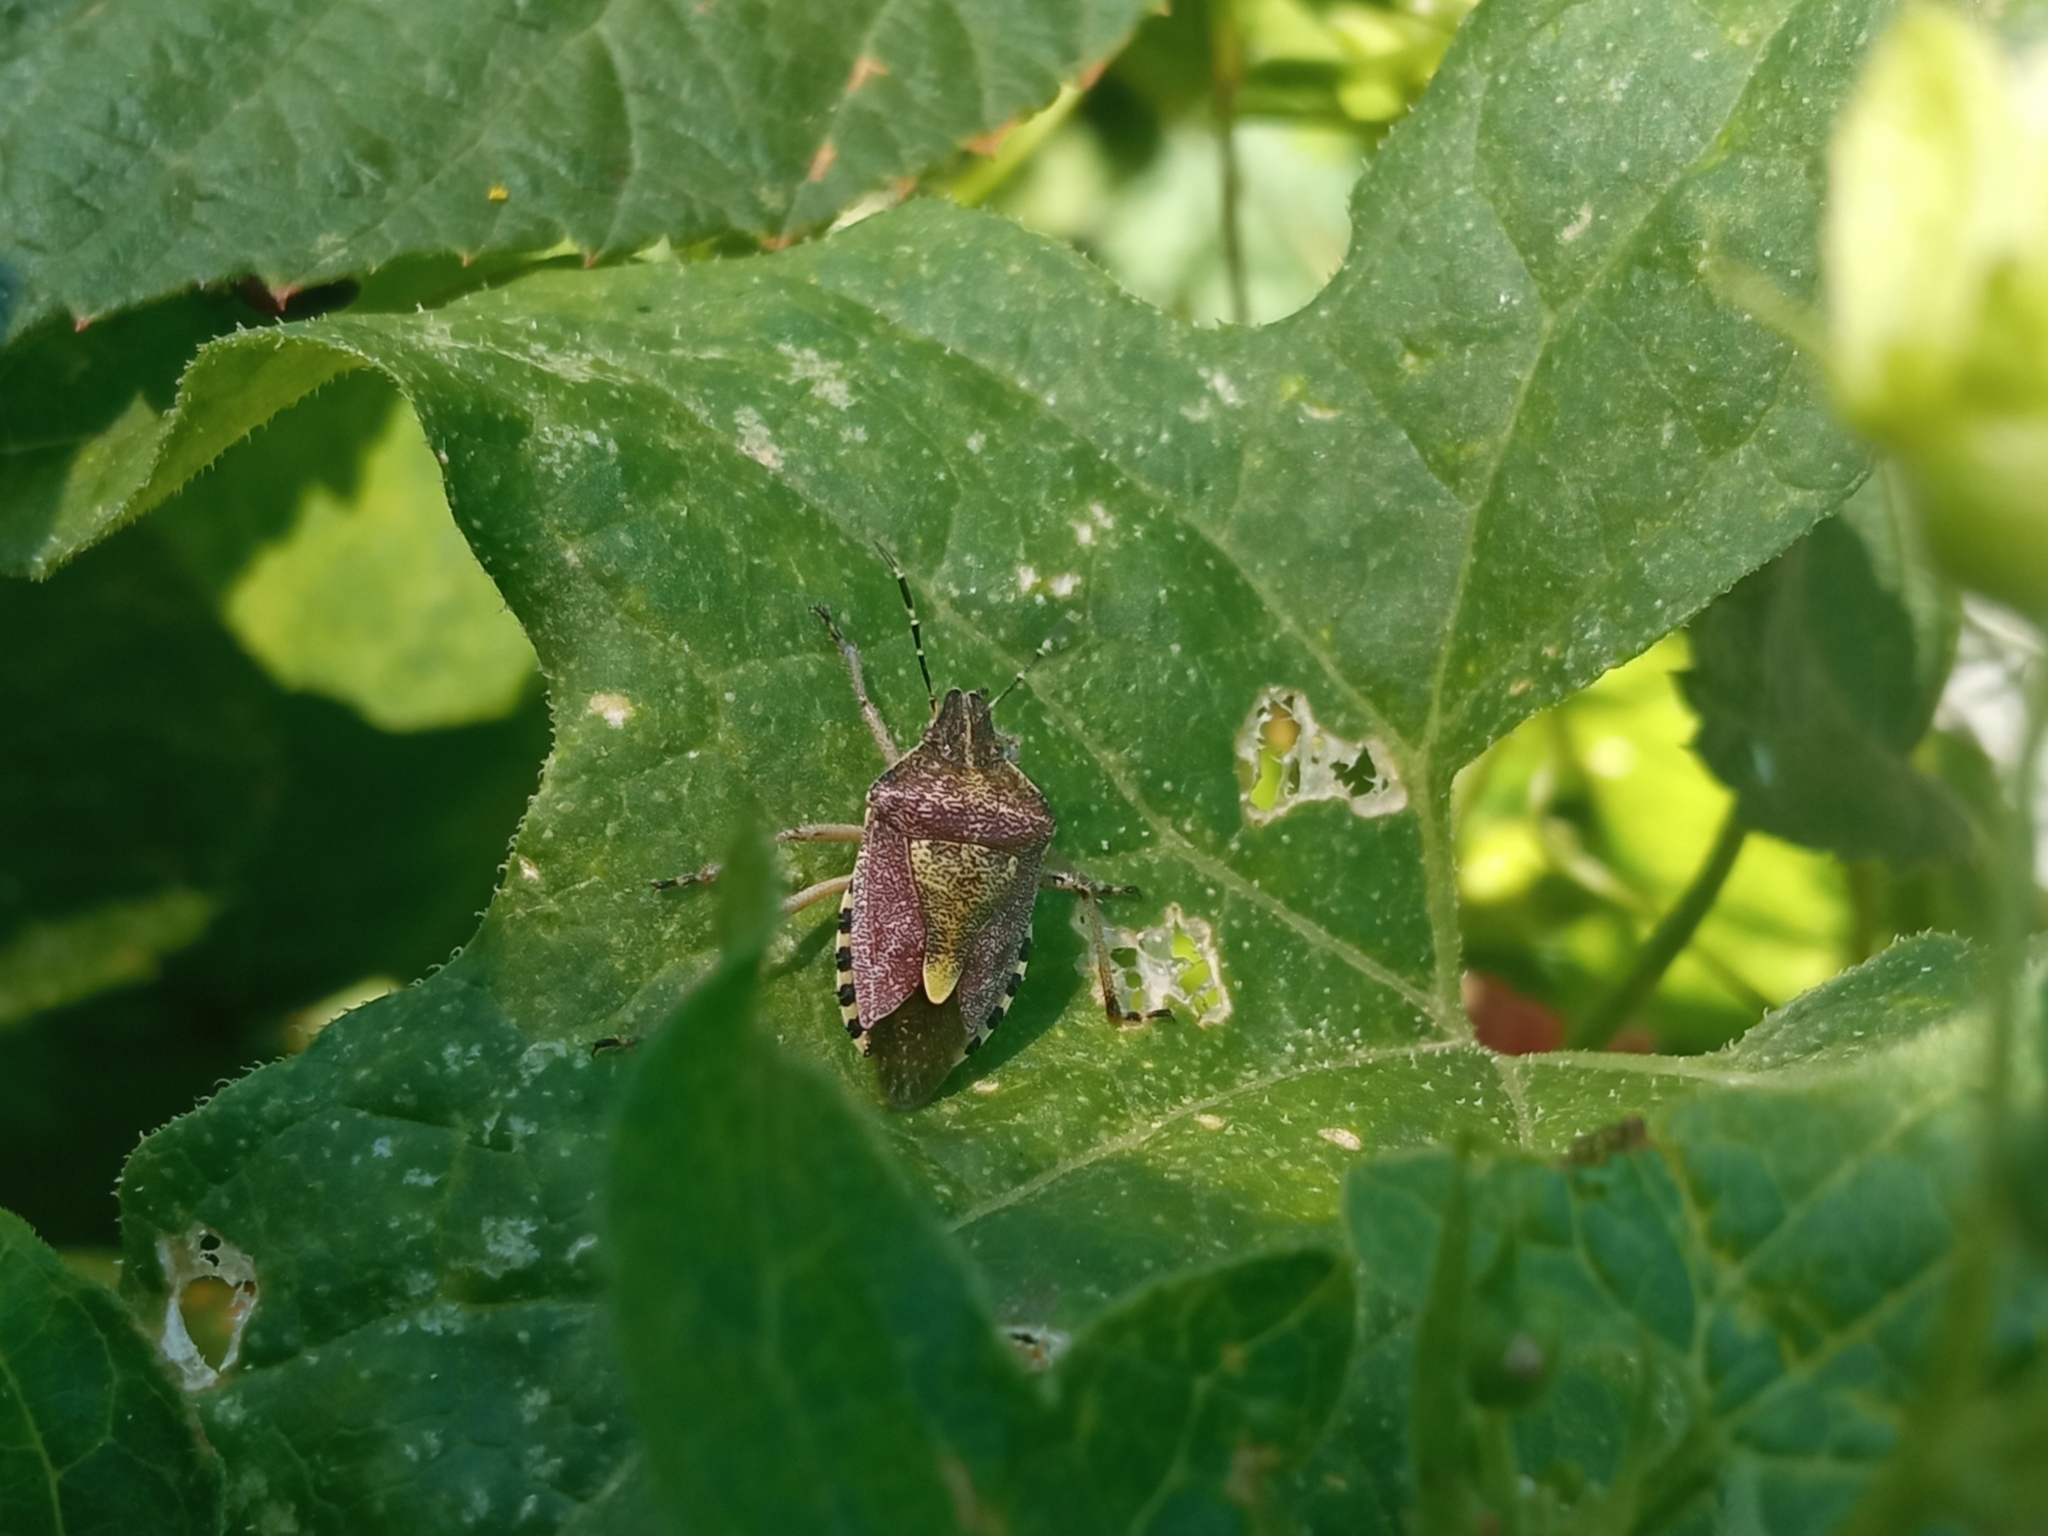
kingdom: Animalia
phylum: Arthropoda
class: Insecta
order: Hemiptera
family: Pentatomidae
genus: Dolycoris
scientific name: Dolycoris baccarum
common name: Sloe bug
